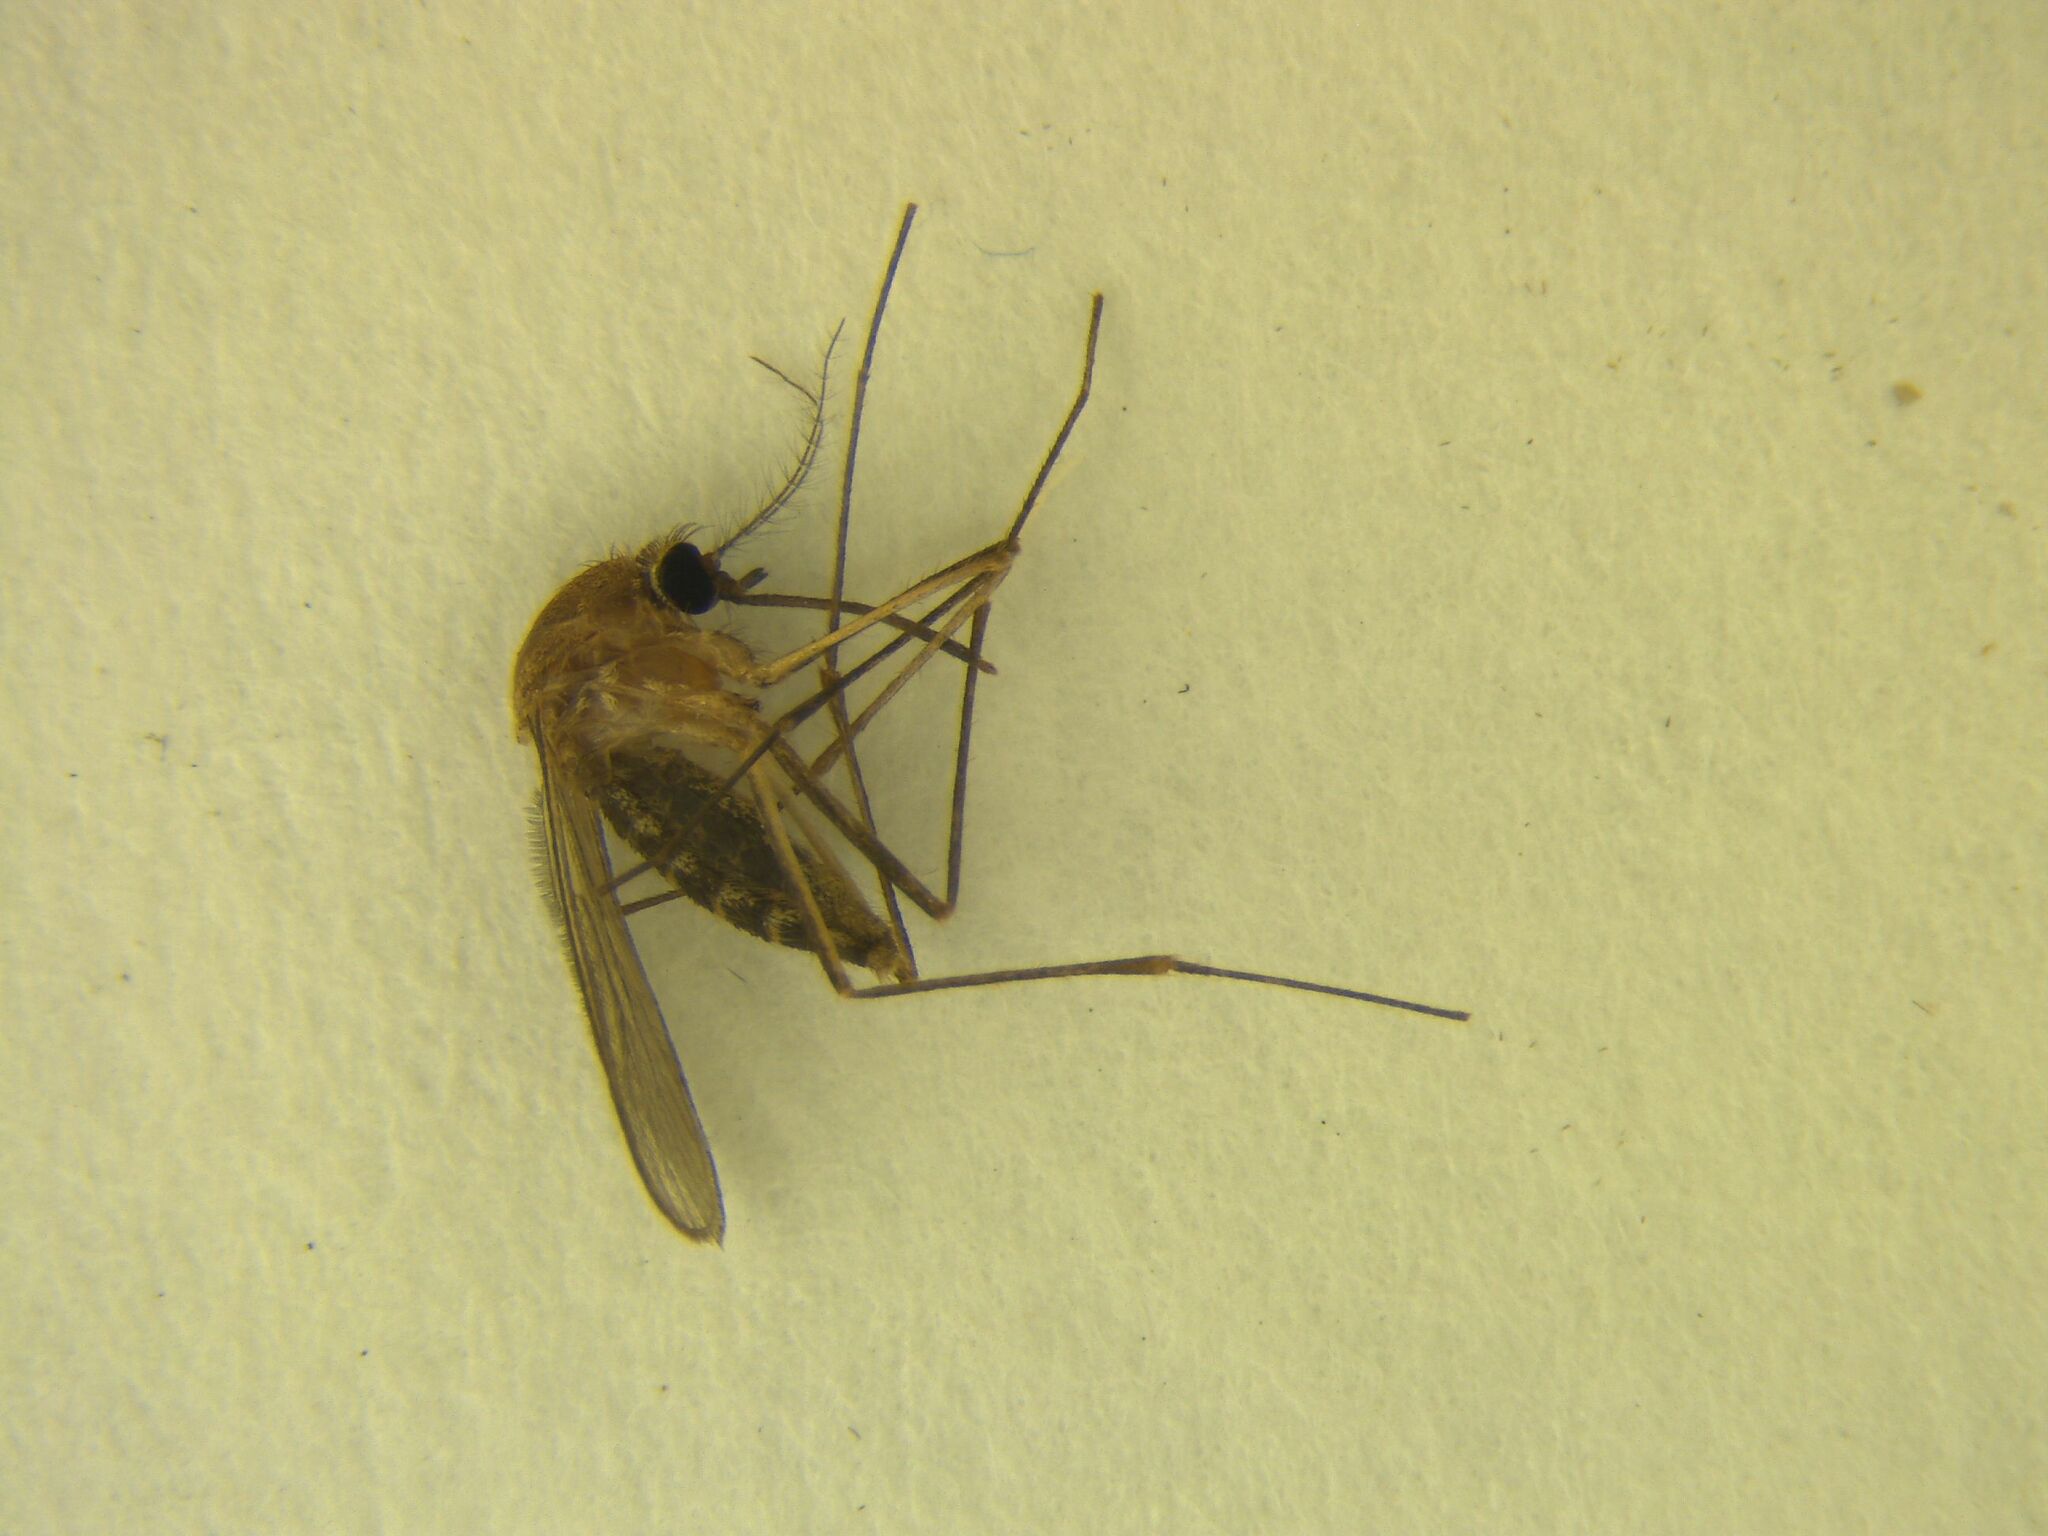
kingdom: Animalia
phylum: Arthropoda
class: Insecta
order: Diptera
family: Culicidae
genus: Culex
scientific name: Culex quinquefasciatus
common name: Southern house mosquito
